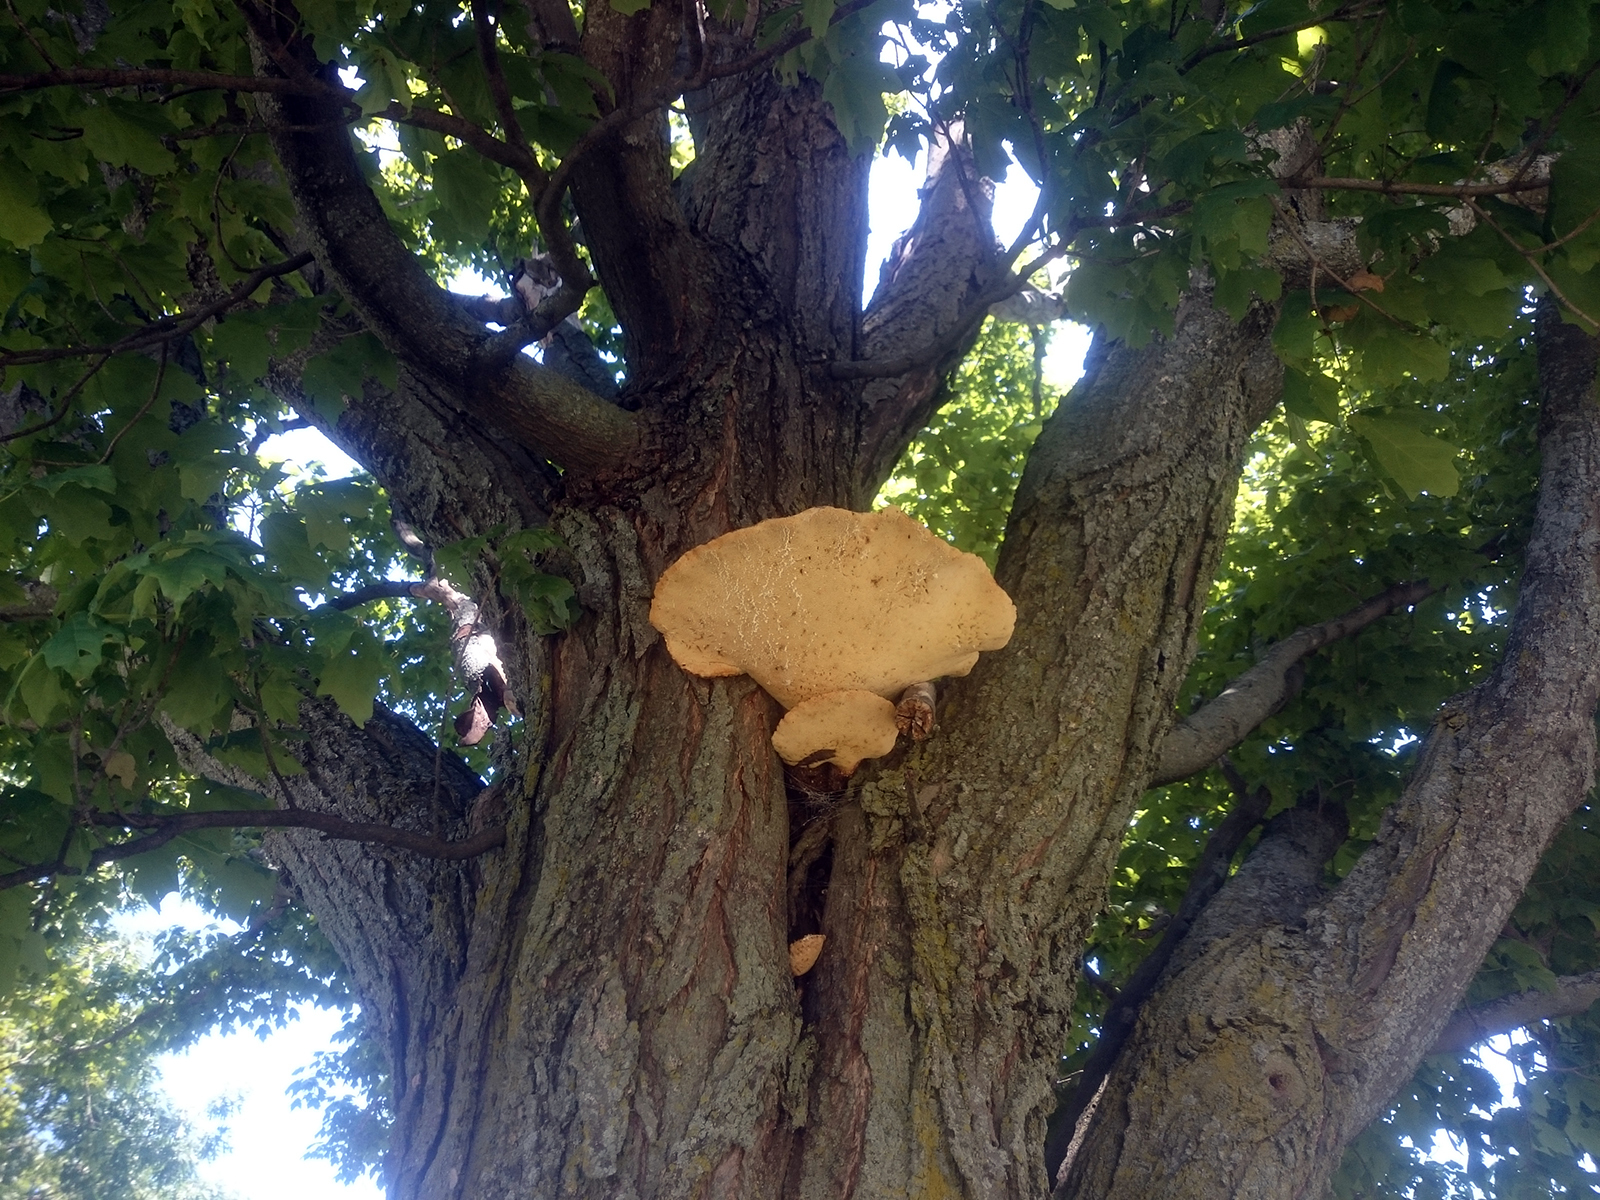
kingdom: Fungi
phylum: Basidiomycota
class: Agaricomycetes
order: Polyporales
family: Polyporaceae
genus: Cerioporus
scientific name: Cerioporus squamosus
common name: Dryad's saddle
